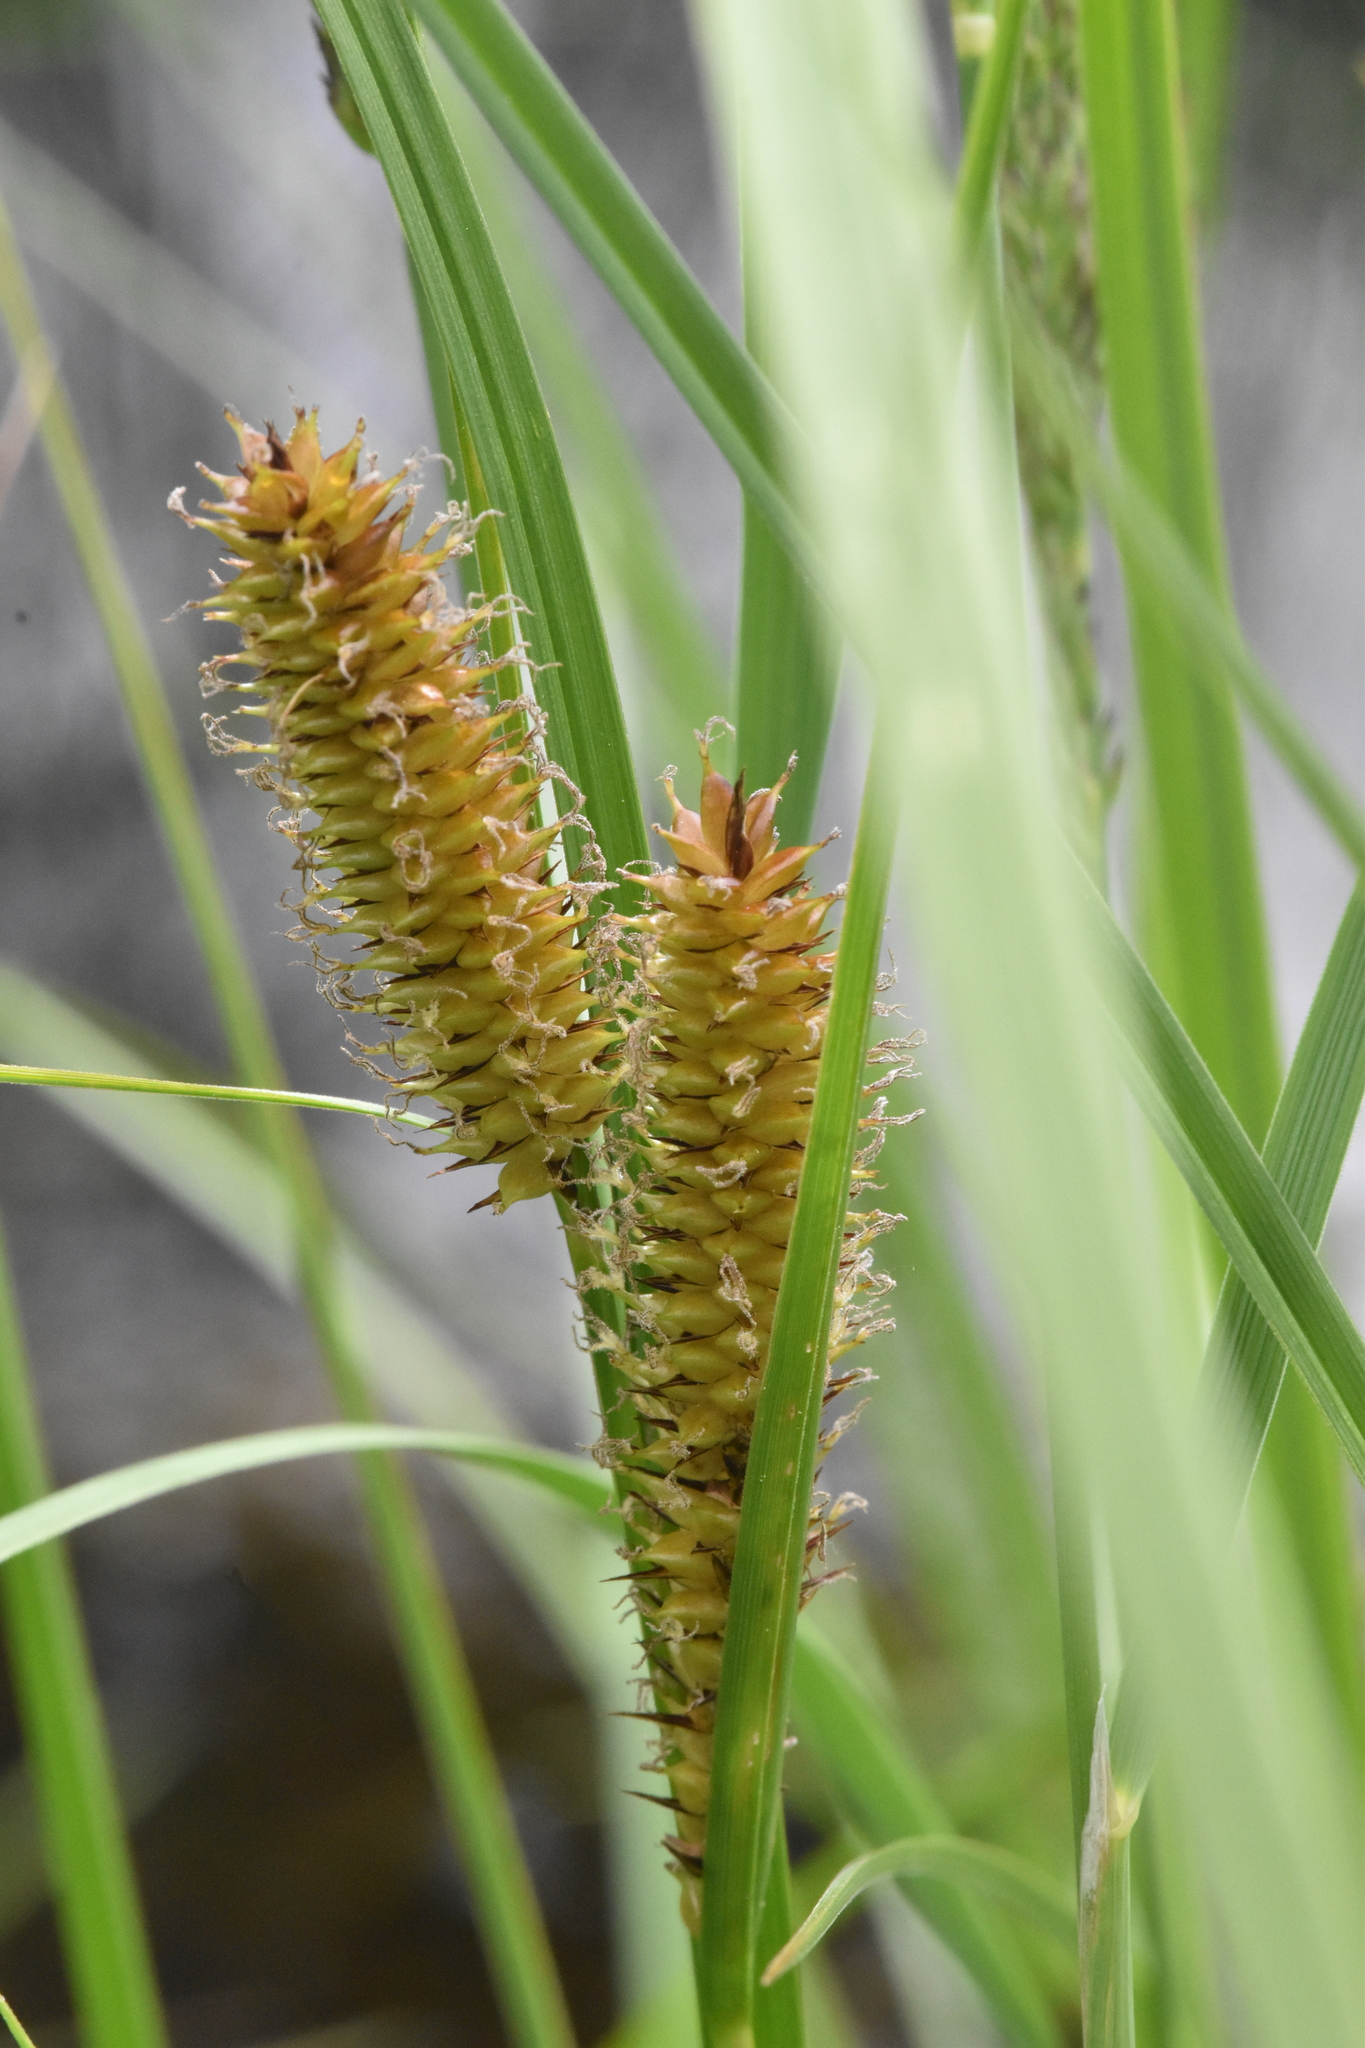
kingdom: Plantae
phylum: Tracheophyta
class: Liliopsida
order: Poales
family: Cyperaceae
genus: Carex
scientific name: Carex utriculata
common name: Beaked sedge
